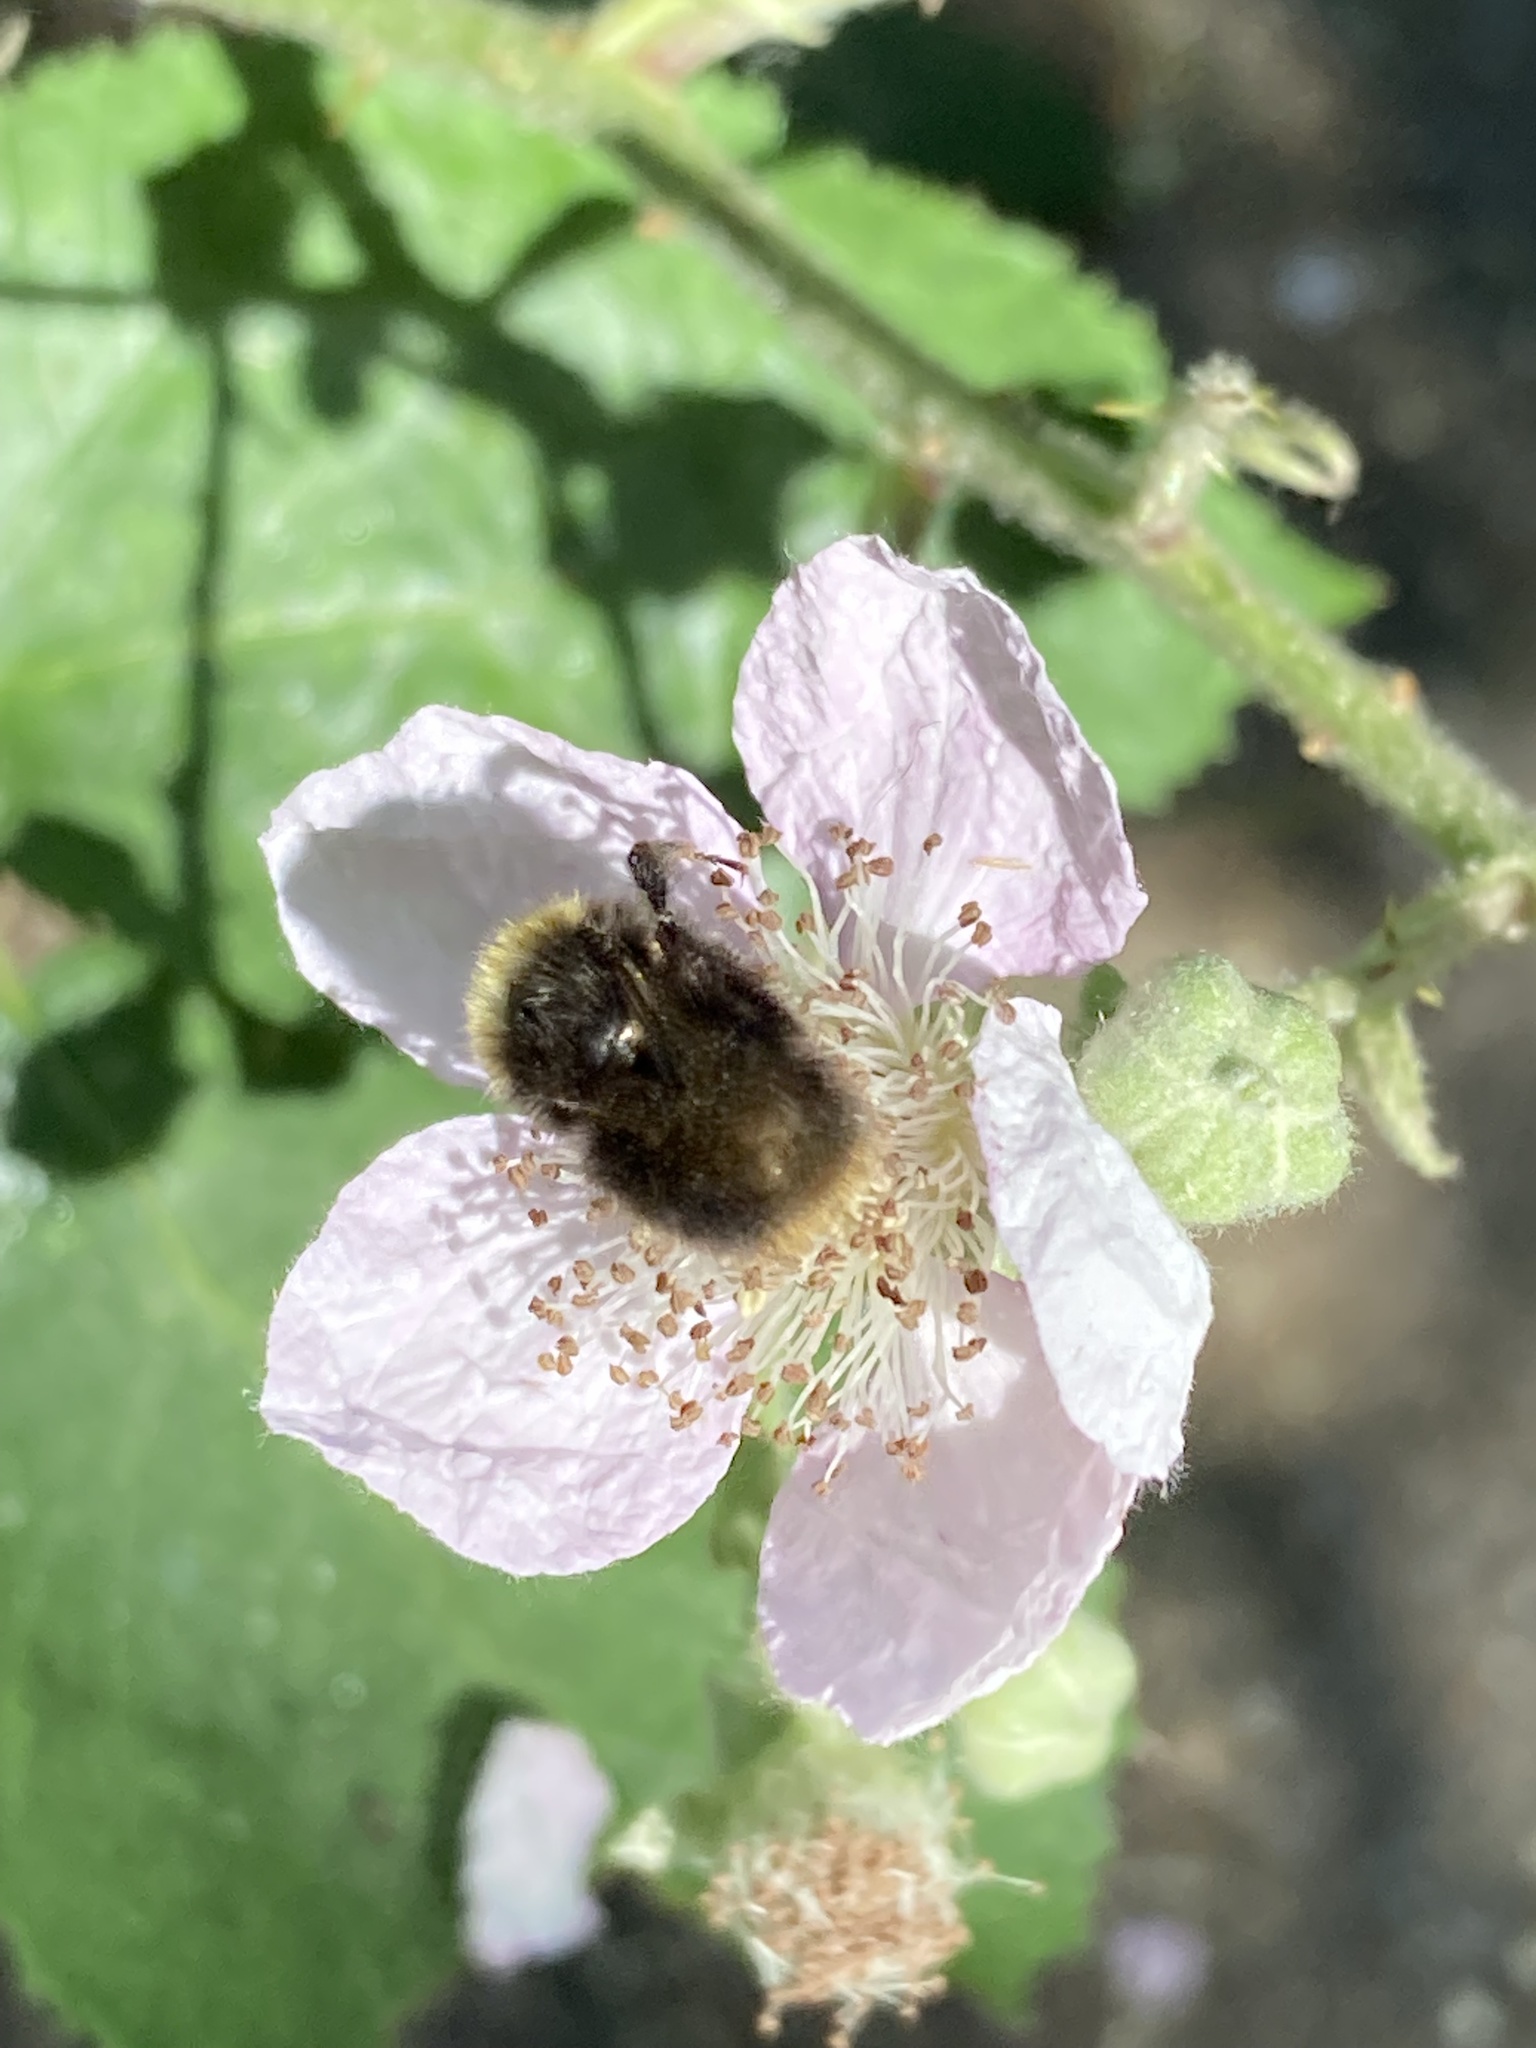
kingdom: Animalia
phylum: Arthropoda
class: Insecta
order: Hymenoptera
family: Apidae
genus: Bombus
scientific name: Bombus pratorum
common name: Early humble-bee
